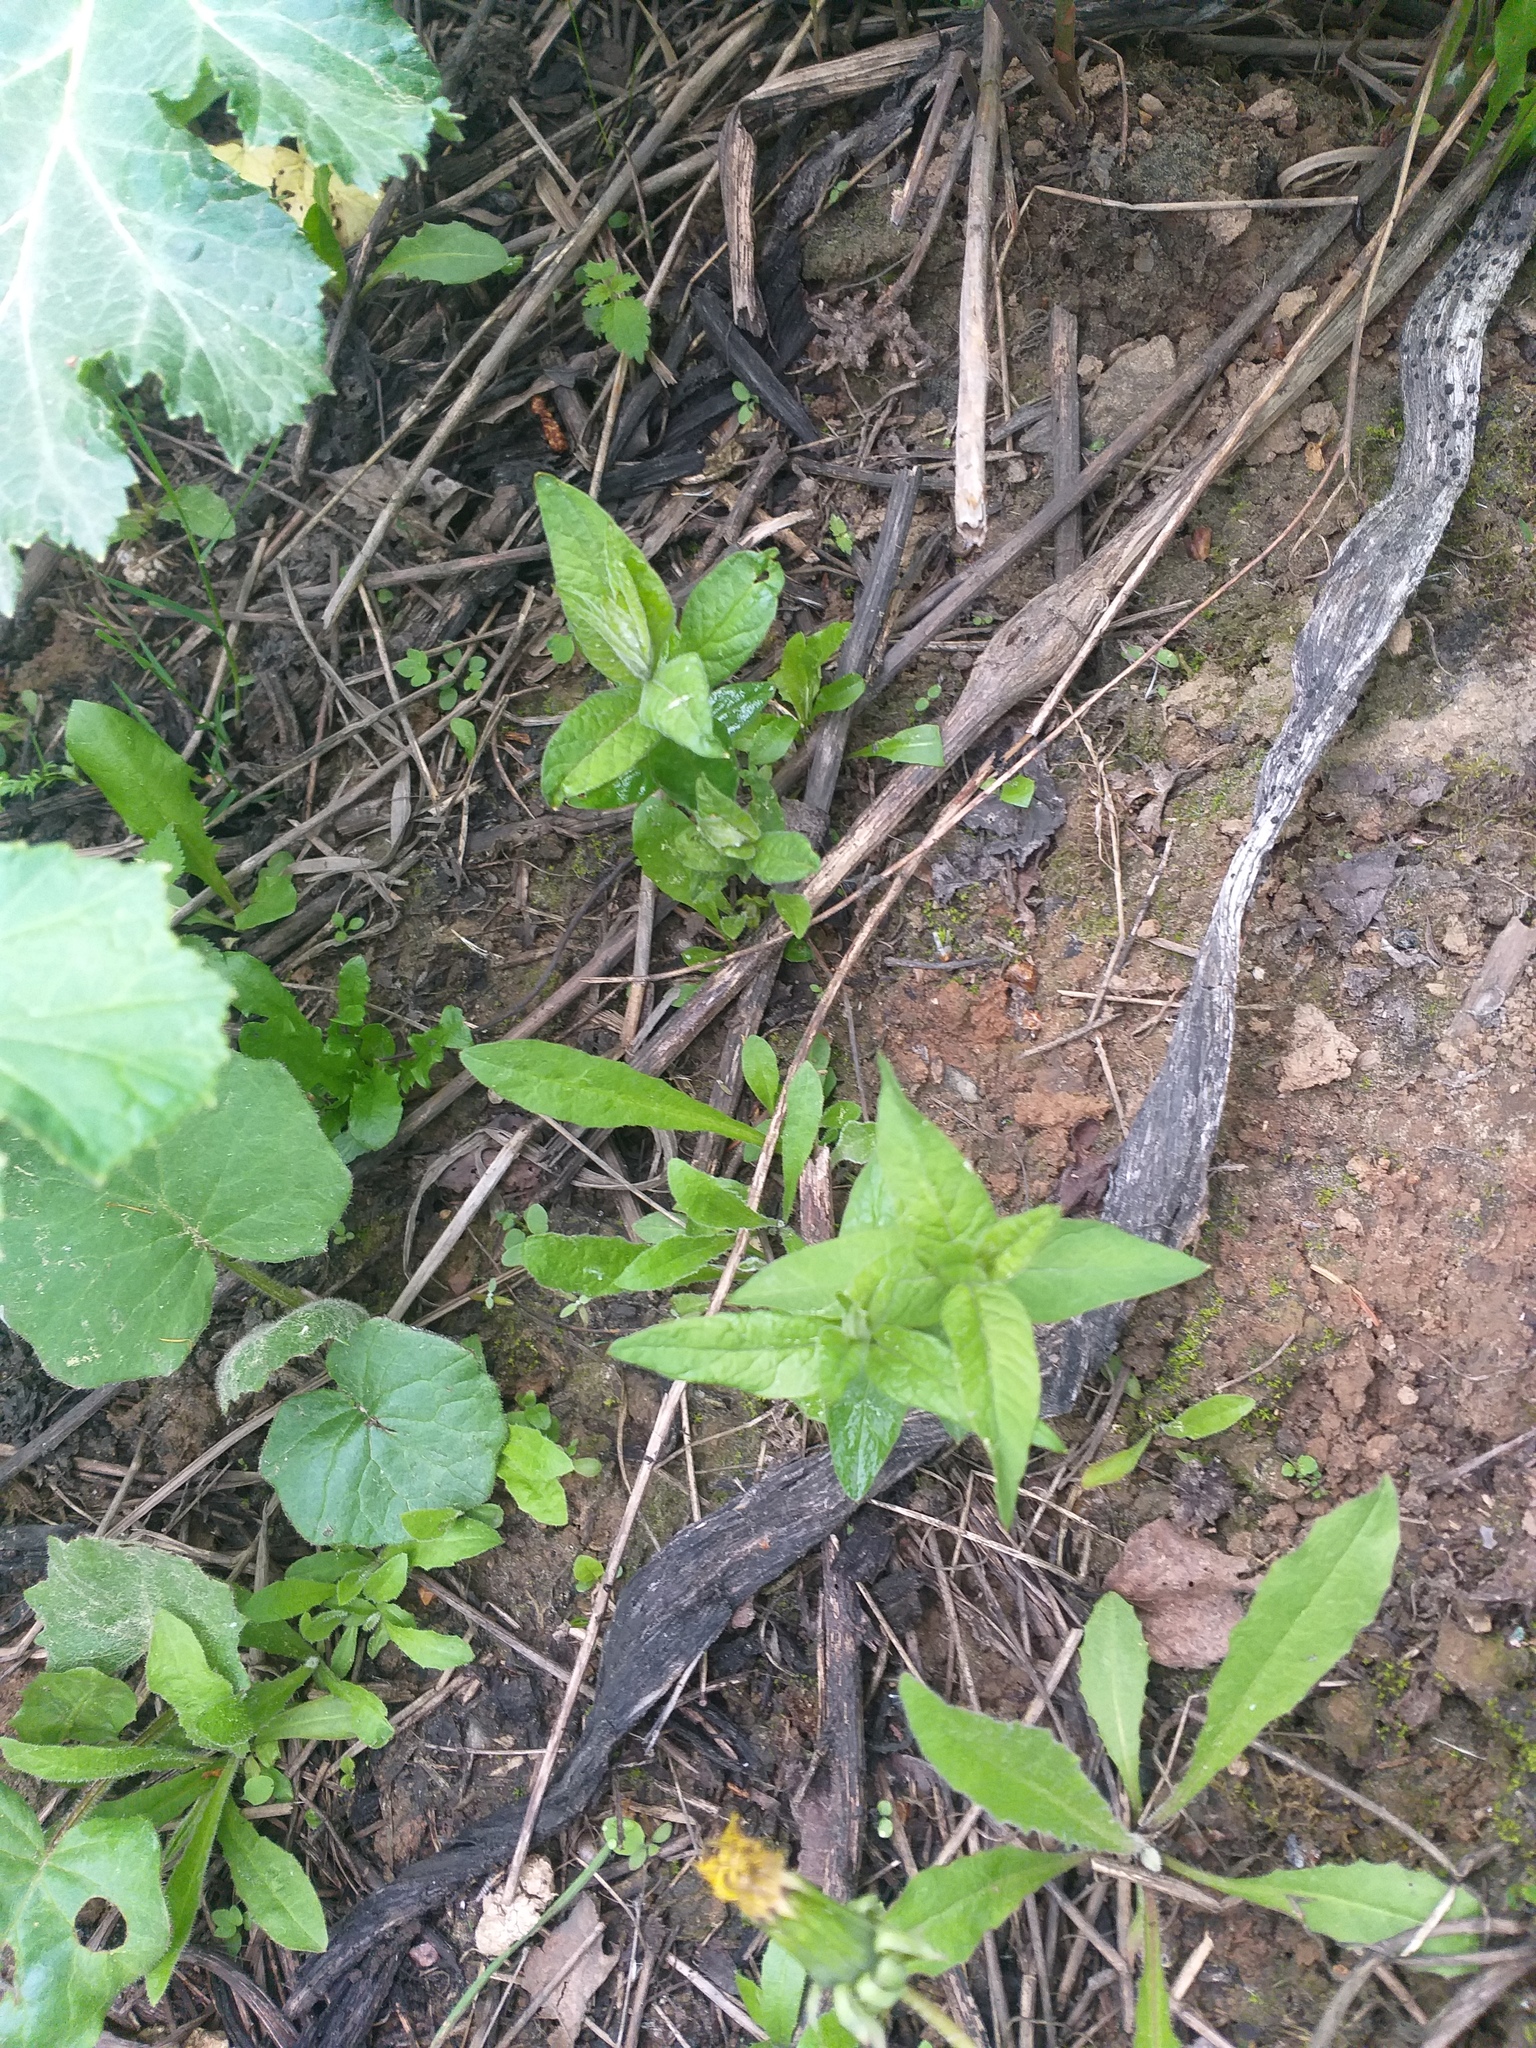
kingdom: Plantae
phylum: Tracheophyta
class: Magnoliopsida
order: Ericales
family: Primulaceae
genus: Lysimachia
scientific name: Lysimachia vulgaris
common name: Yellow loosestrife
